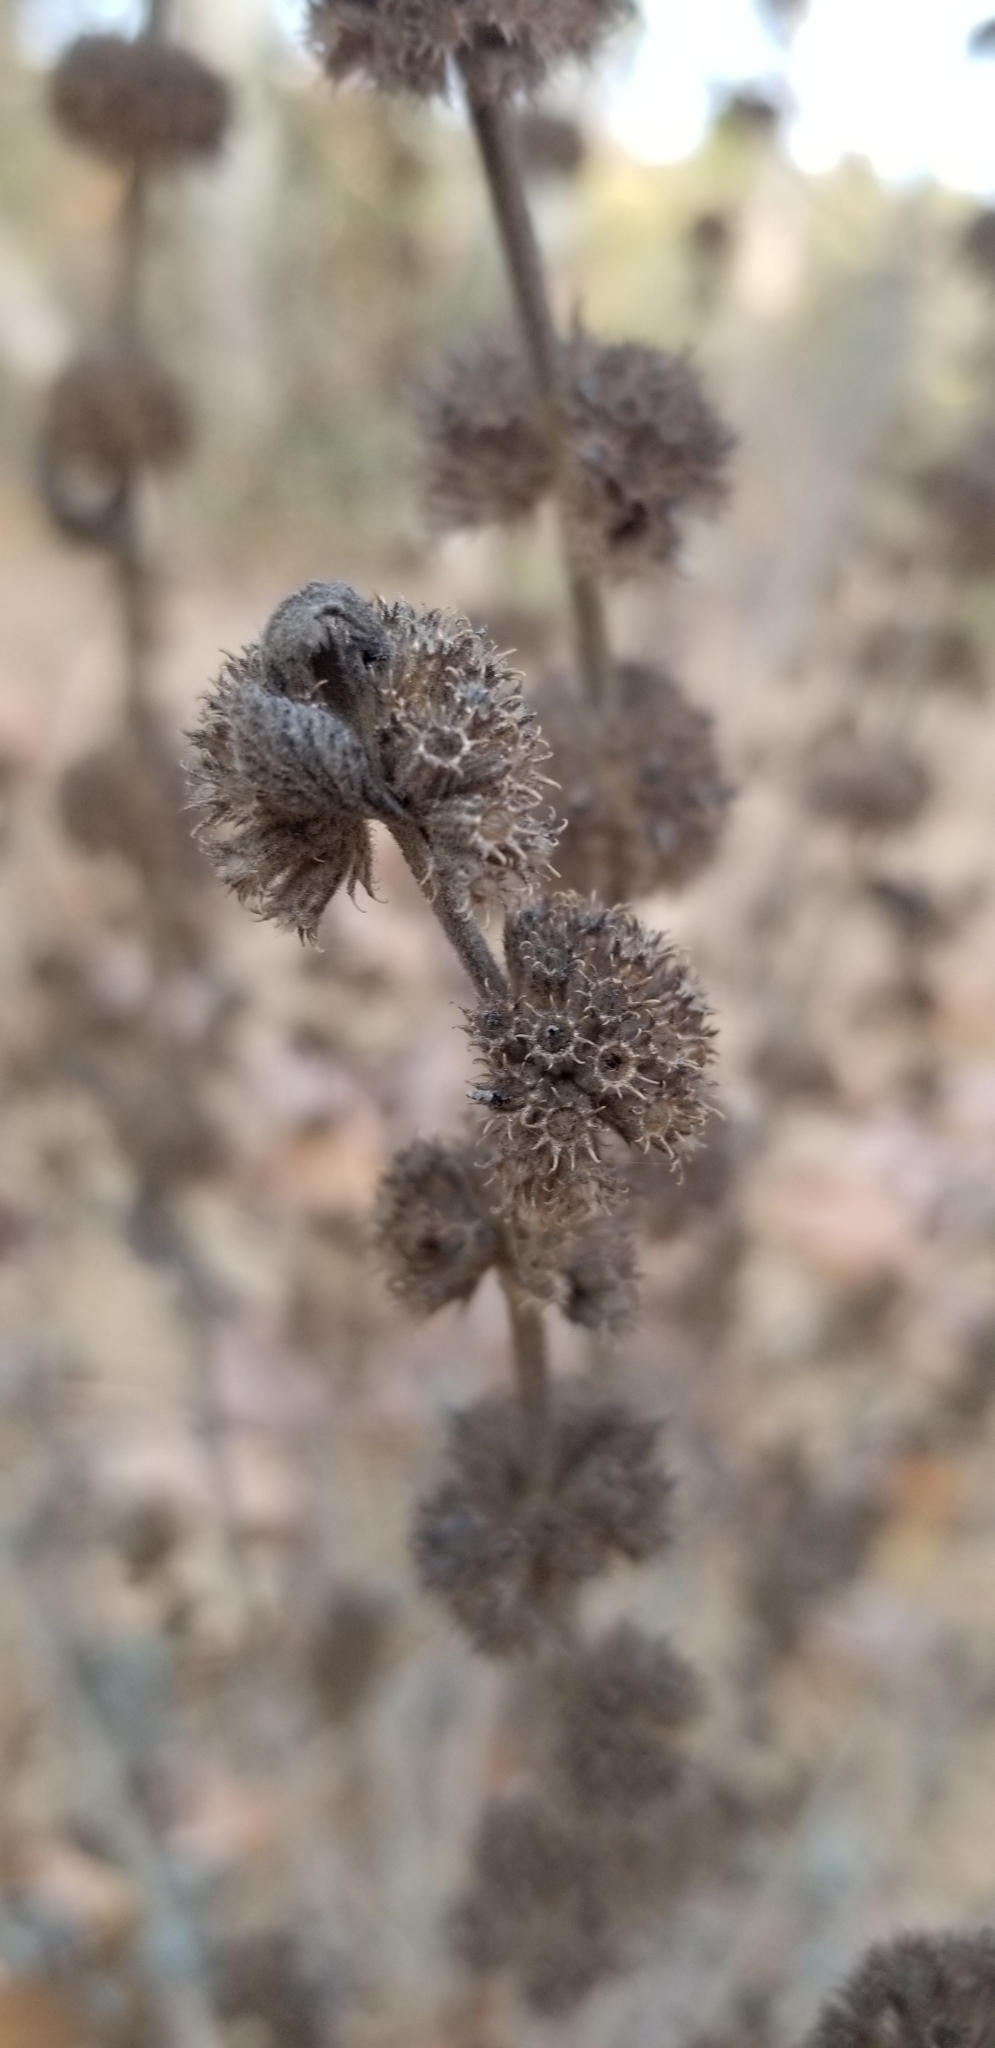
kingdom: Plantae
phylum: Tracheophyta
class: Magnoliopsida
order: Lamiales
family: Lamiaceae
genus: Marrubium
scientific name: Marrubium vulgare
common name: Horehound
